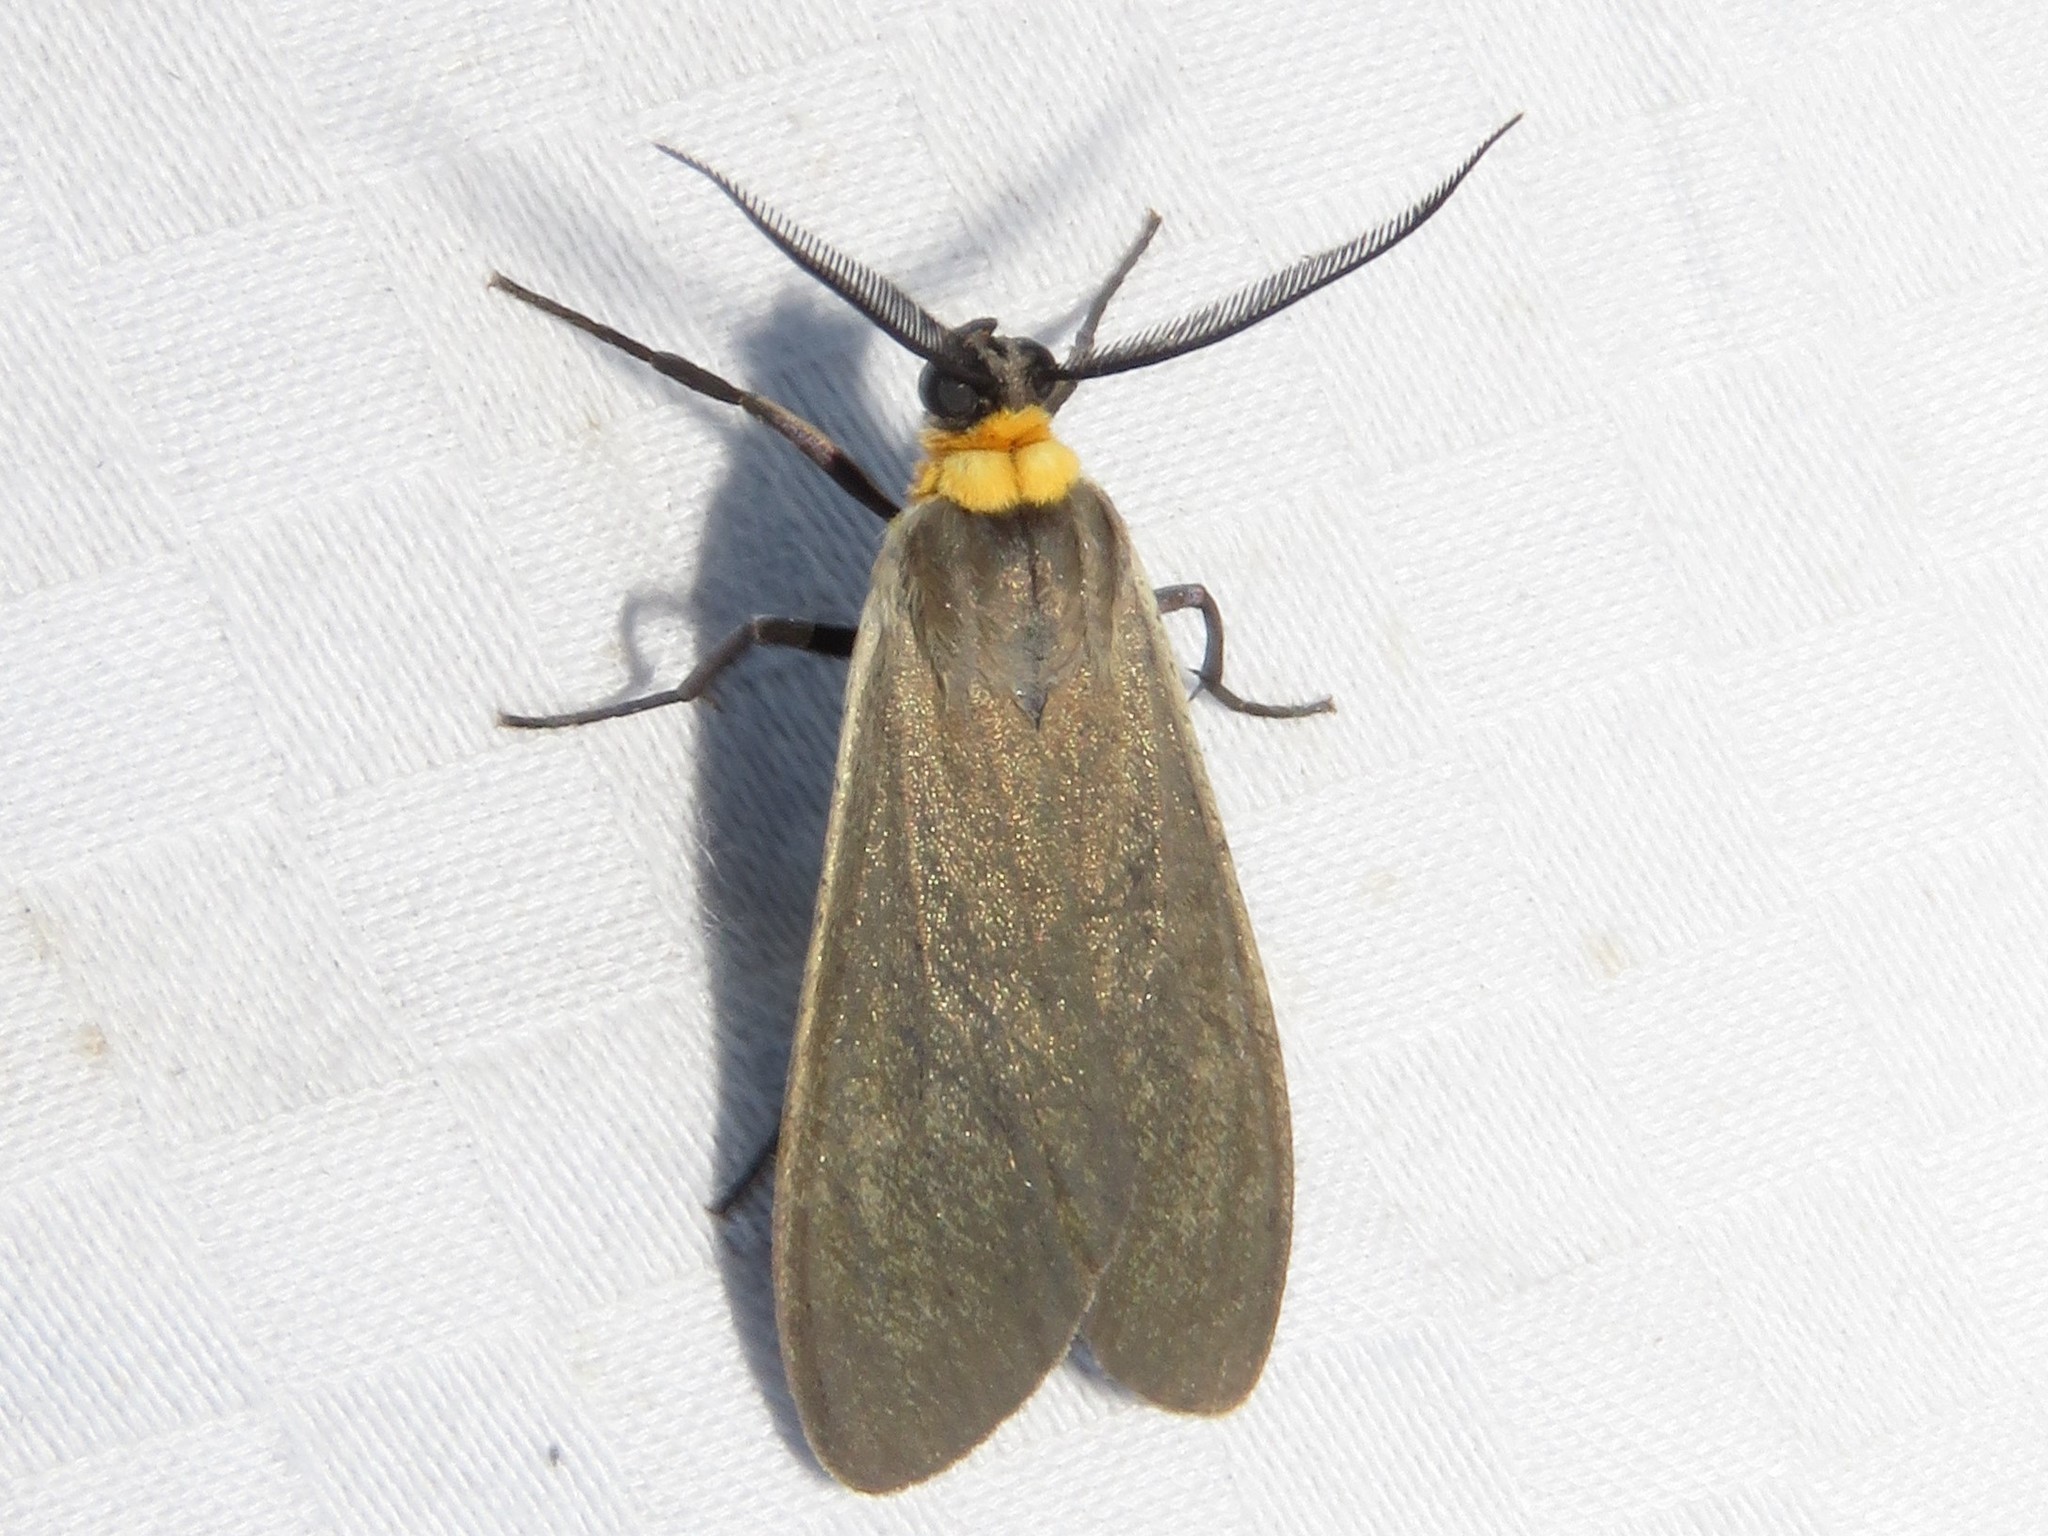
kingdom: Animalia
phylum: Arthropoda
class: Insecta
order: Lepidoptera
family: Erebidae
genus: Cisseps
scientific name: Cisseps fulvicollis
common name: Yellow-collared scape moth
